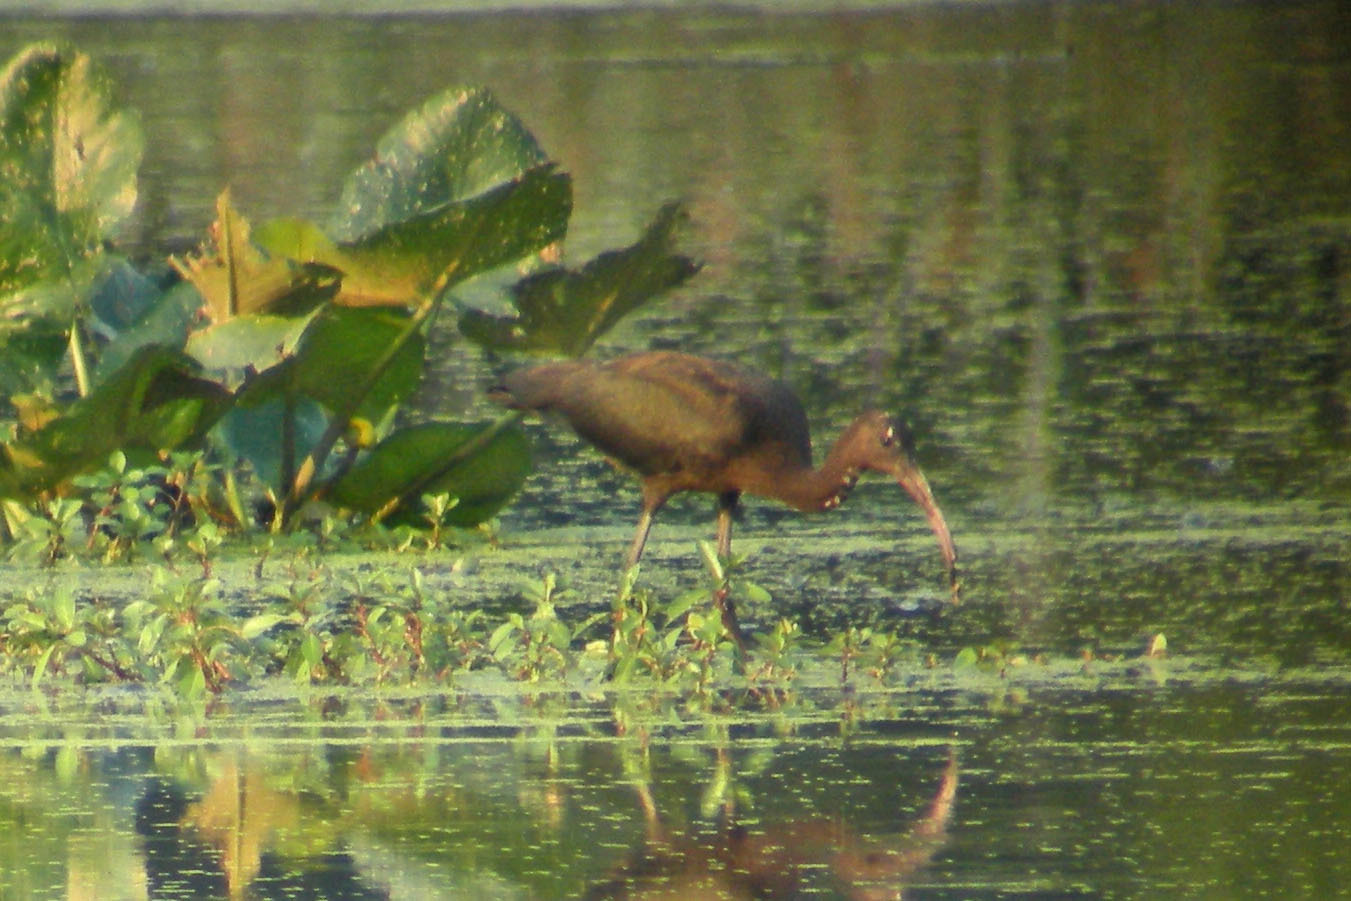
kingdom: Animalia
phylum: Chordata
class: Aves
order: Pelecaniformes
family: Threskiornithidae
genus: Plegadis
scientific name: Plegadis falcinellus
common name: Glossy ibis
